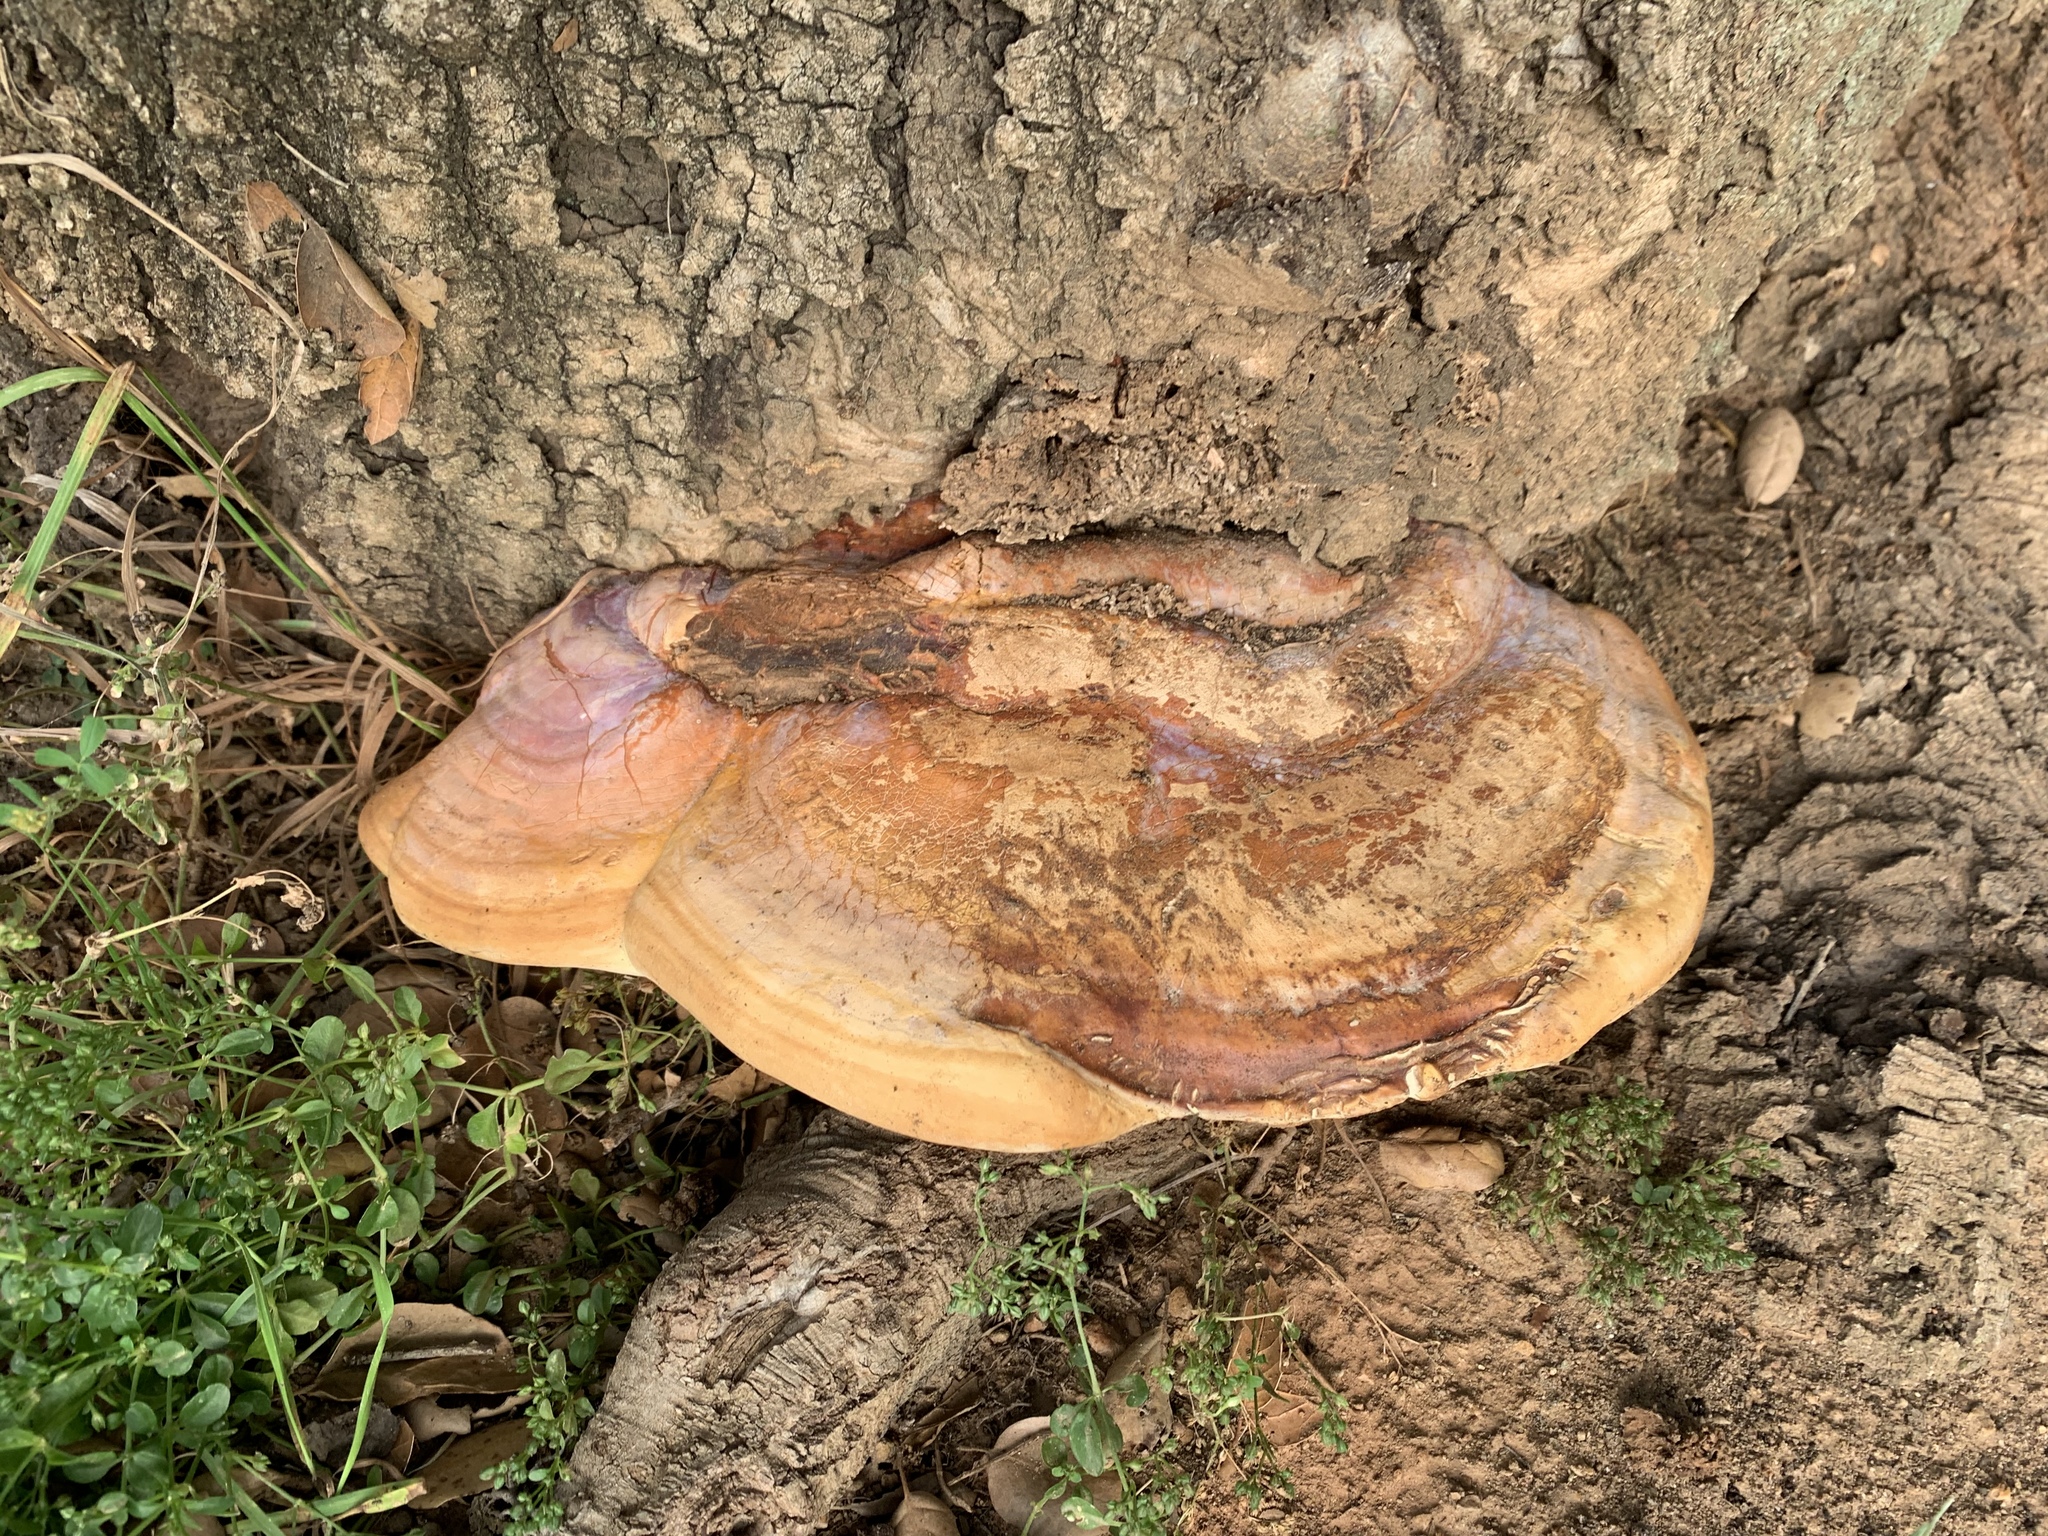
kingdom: Fungi
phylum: Basidiomycota
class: Agaricomycetes
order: Polyporales
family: Polyporaceae
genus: Ganoderma
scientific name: Ganoderma polychromum
